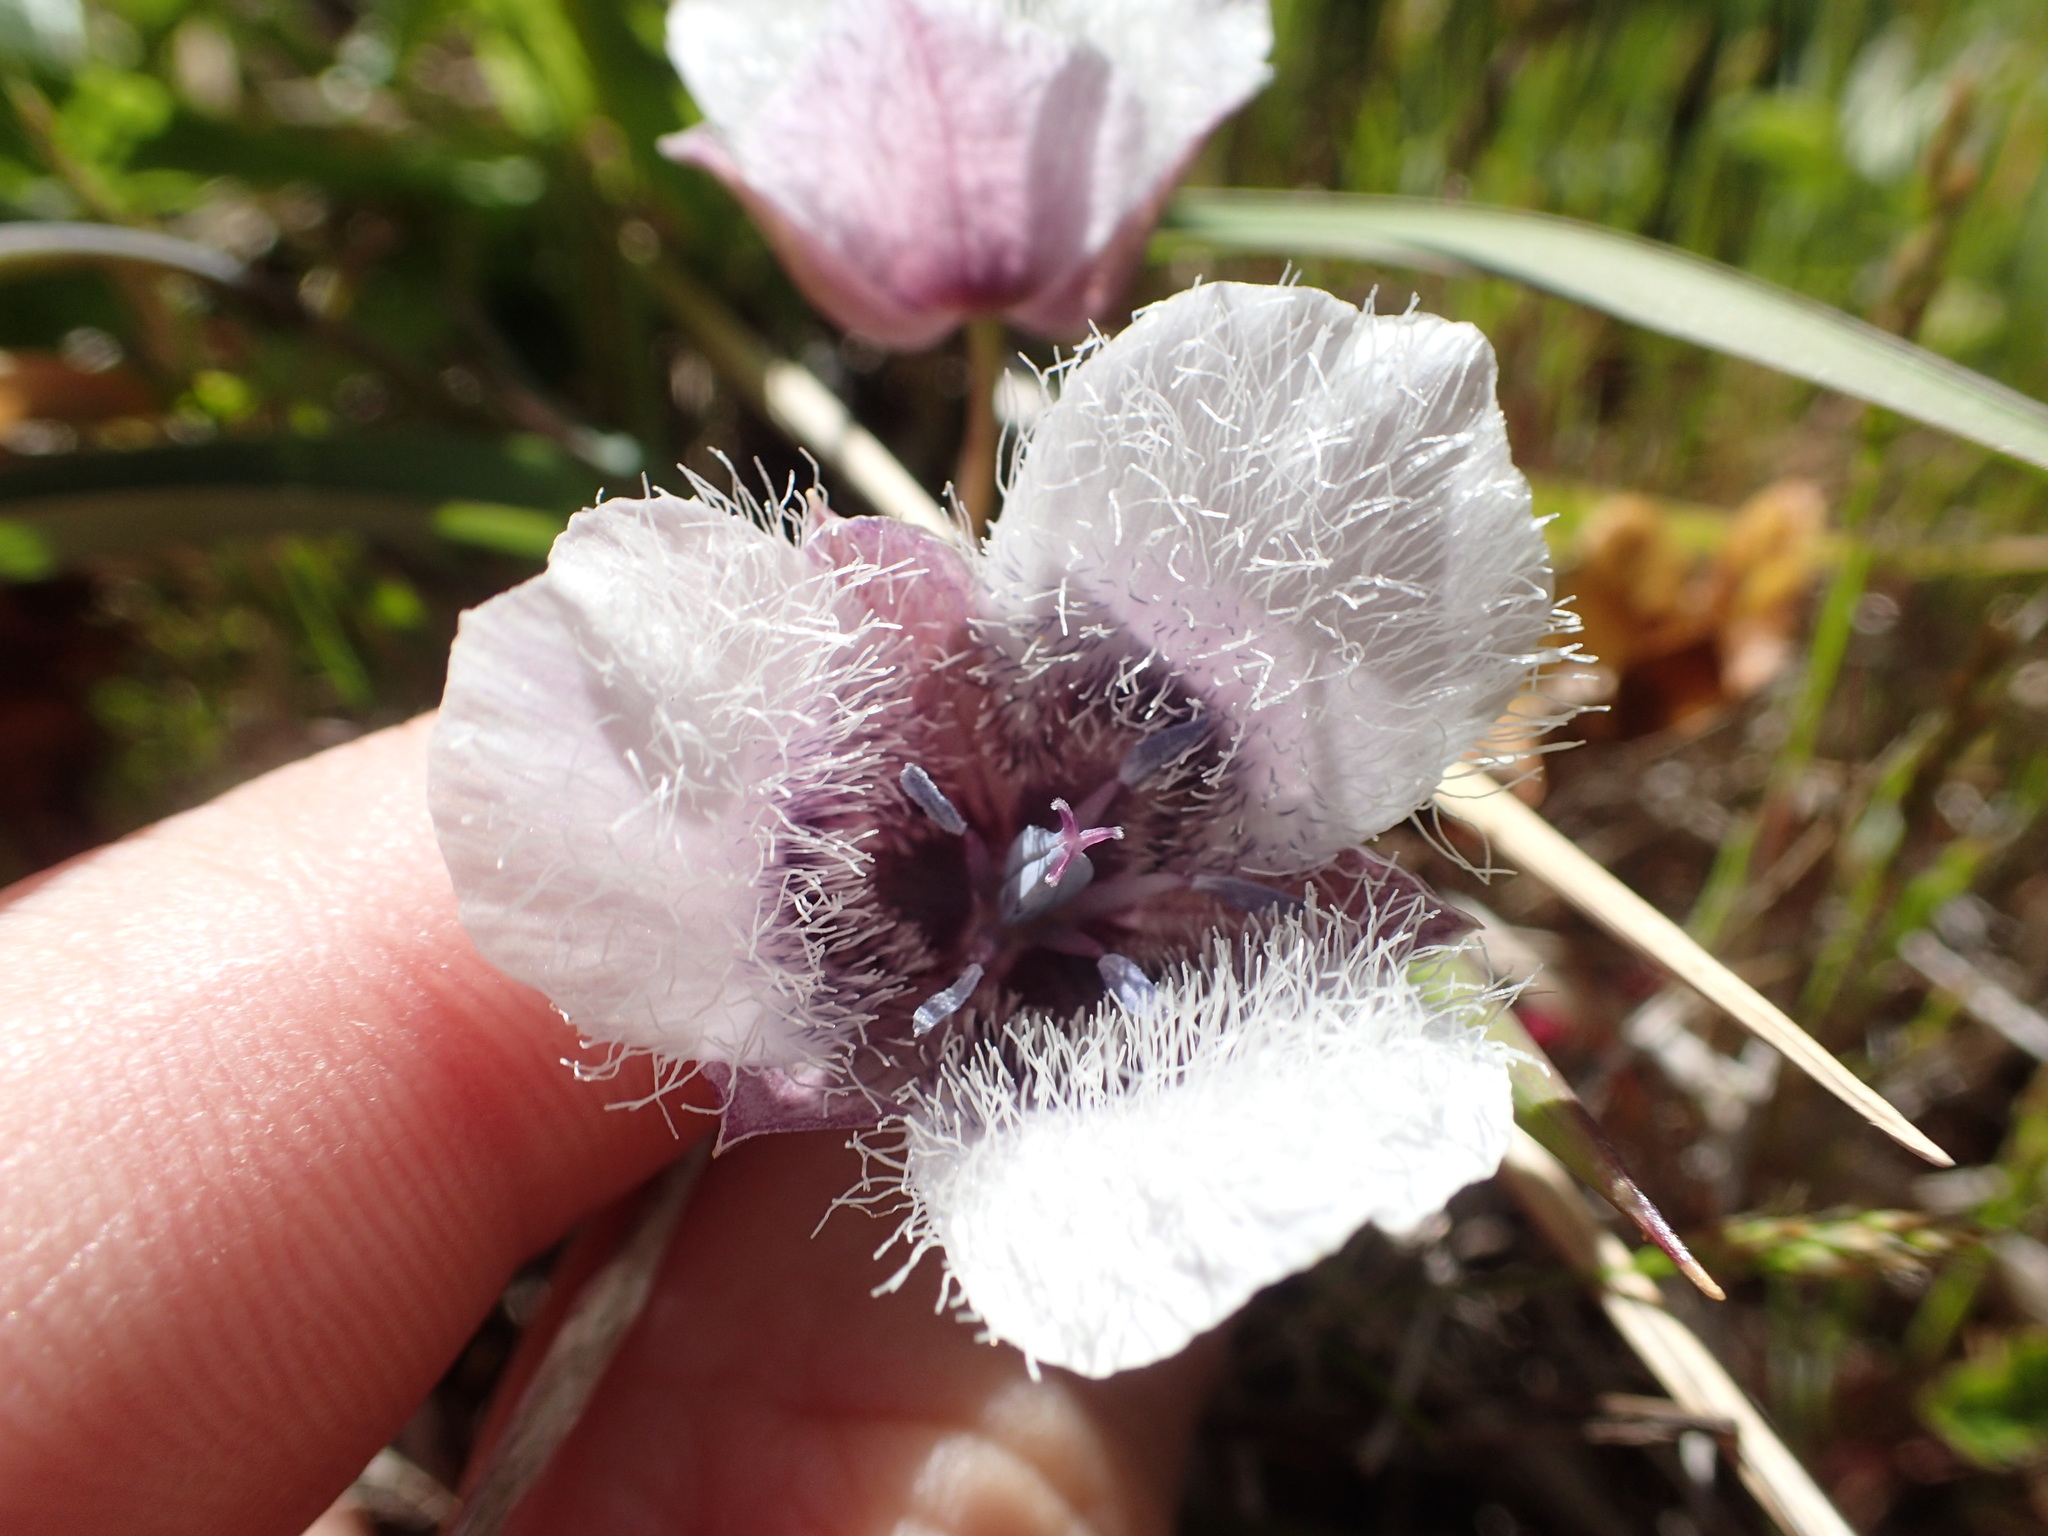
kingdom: Plantae
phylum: Tracheophyta
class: Liliopsida
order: Liliales
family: Liliaceae
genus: Calochortus
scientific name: Calochortus tolmiei
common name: Pussy-ears
